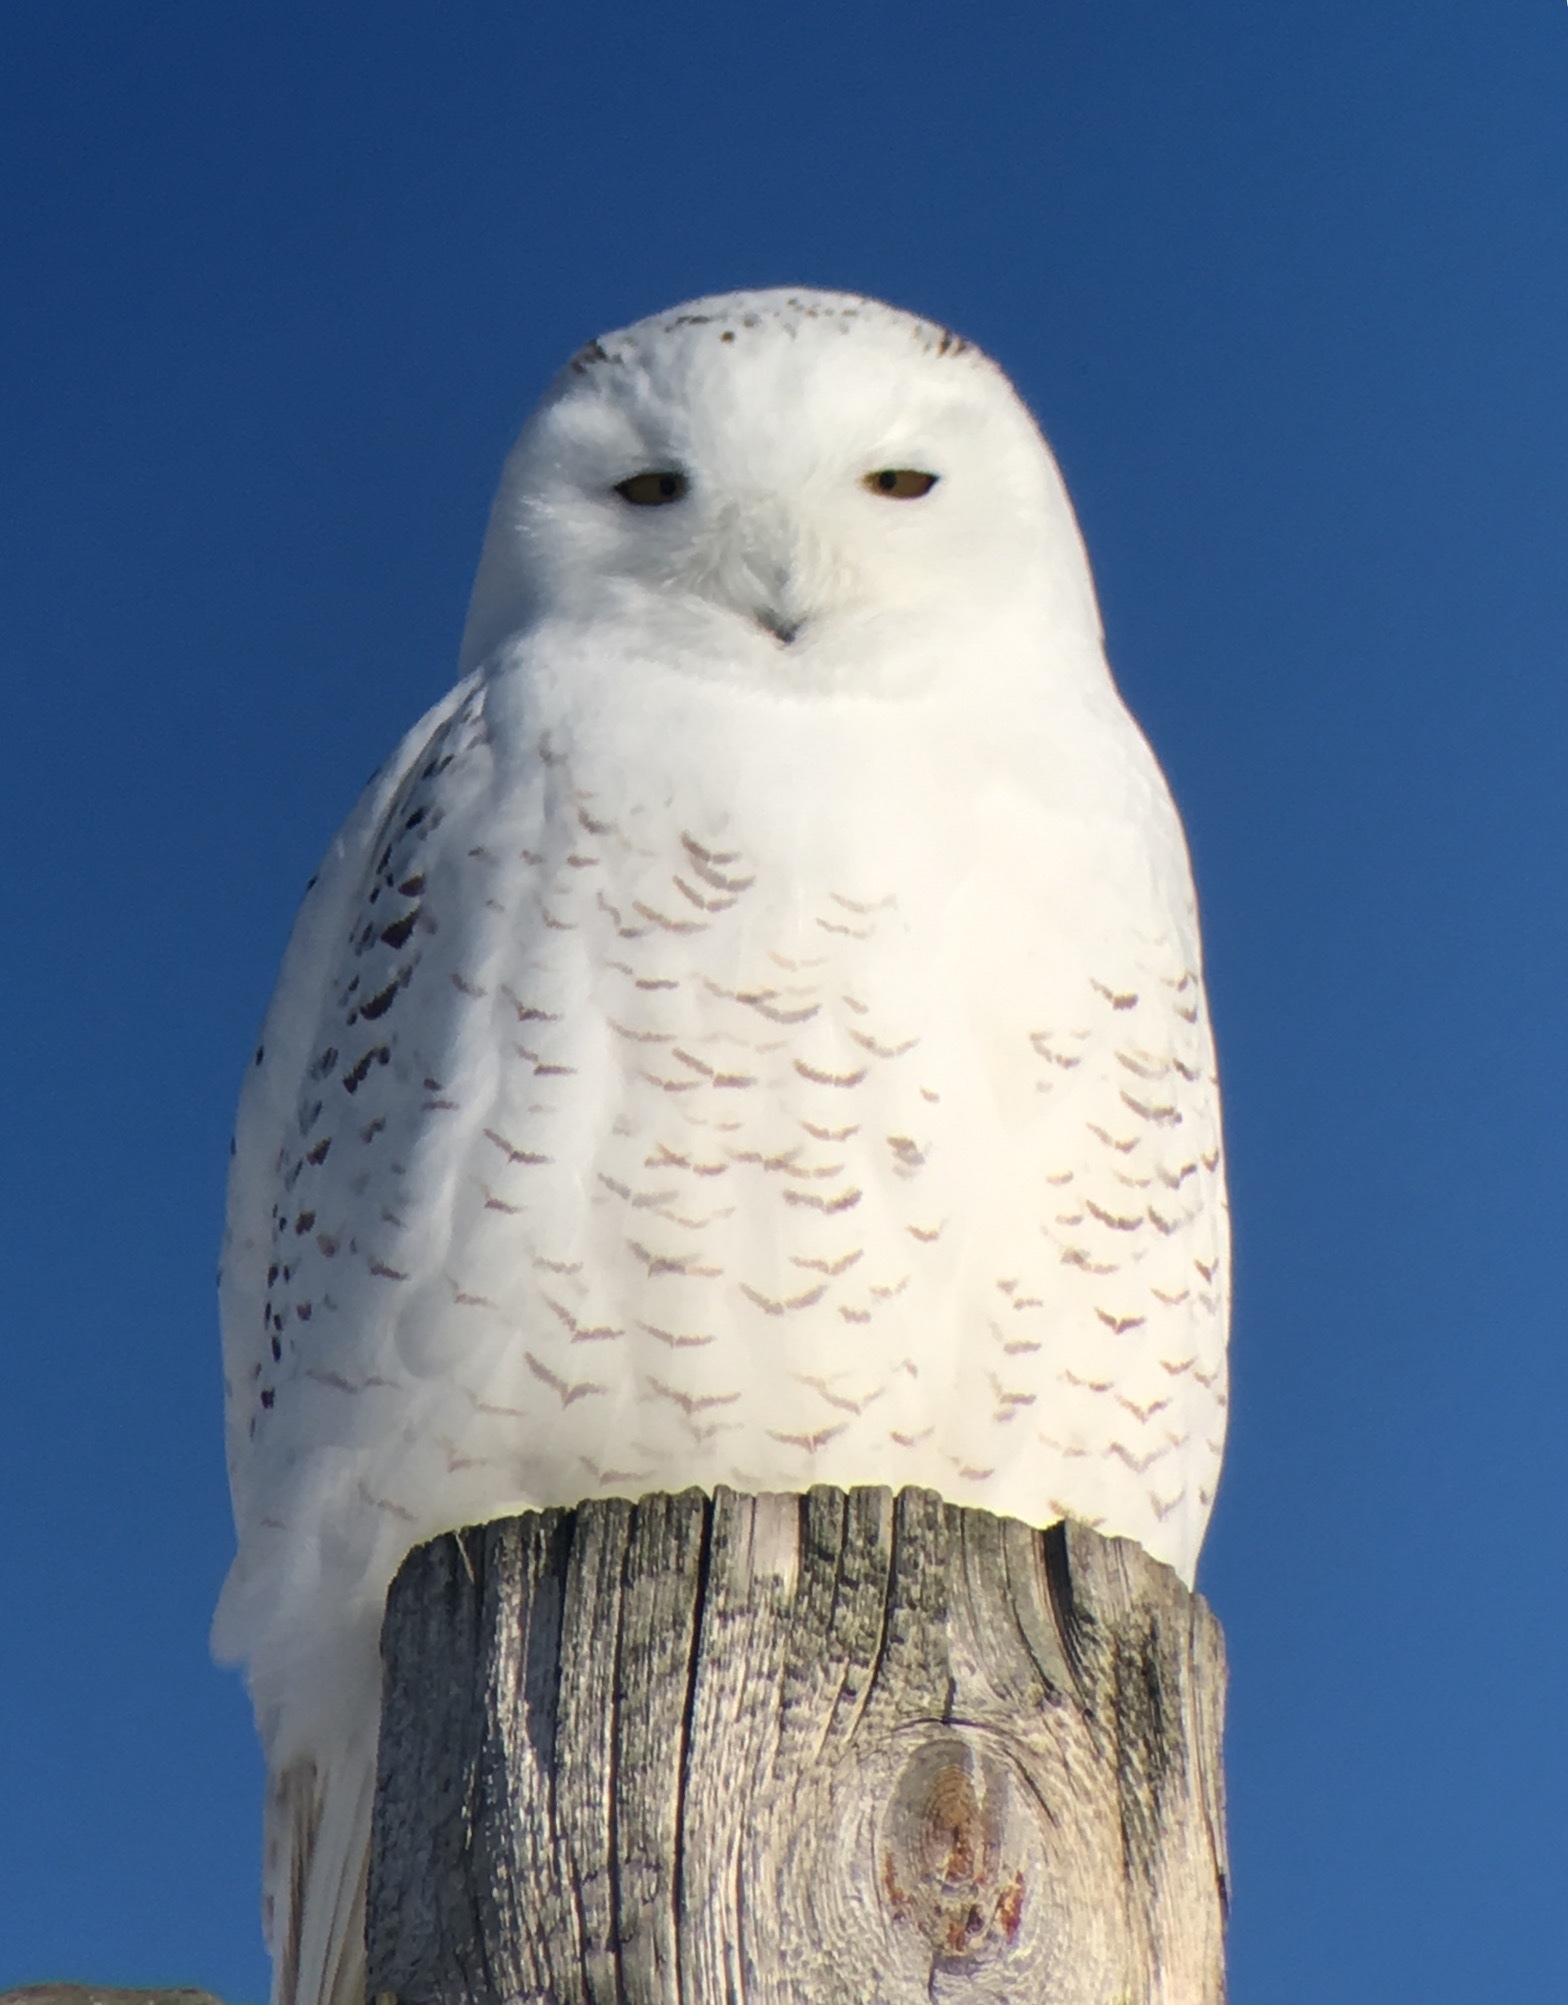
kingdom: Animalia
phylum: Chordata
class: Aves
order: Strigiformes
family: Strigidae
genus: Bubo
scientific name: Bubo scandiacus
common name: Snowy owl
